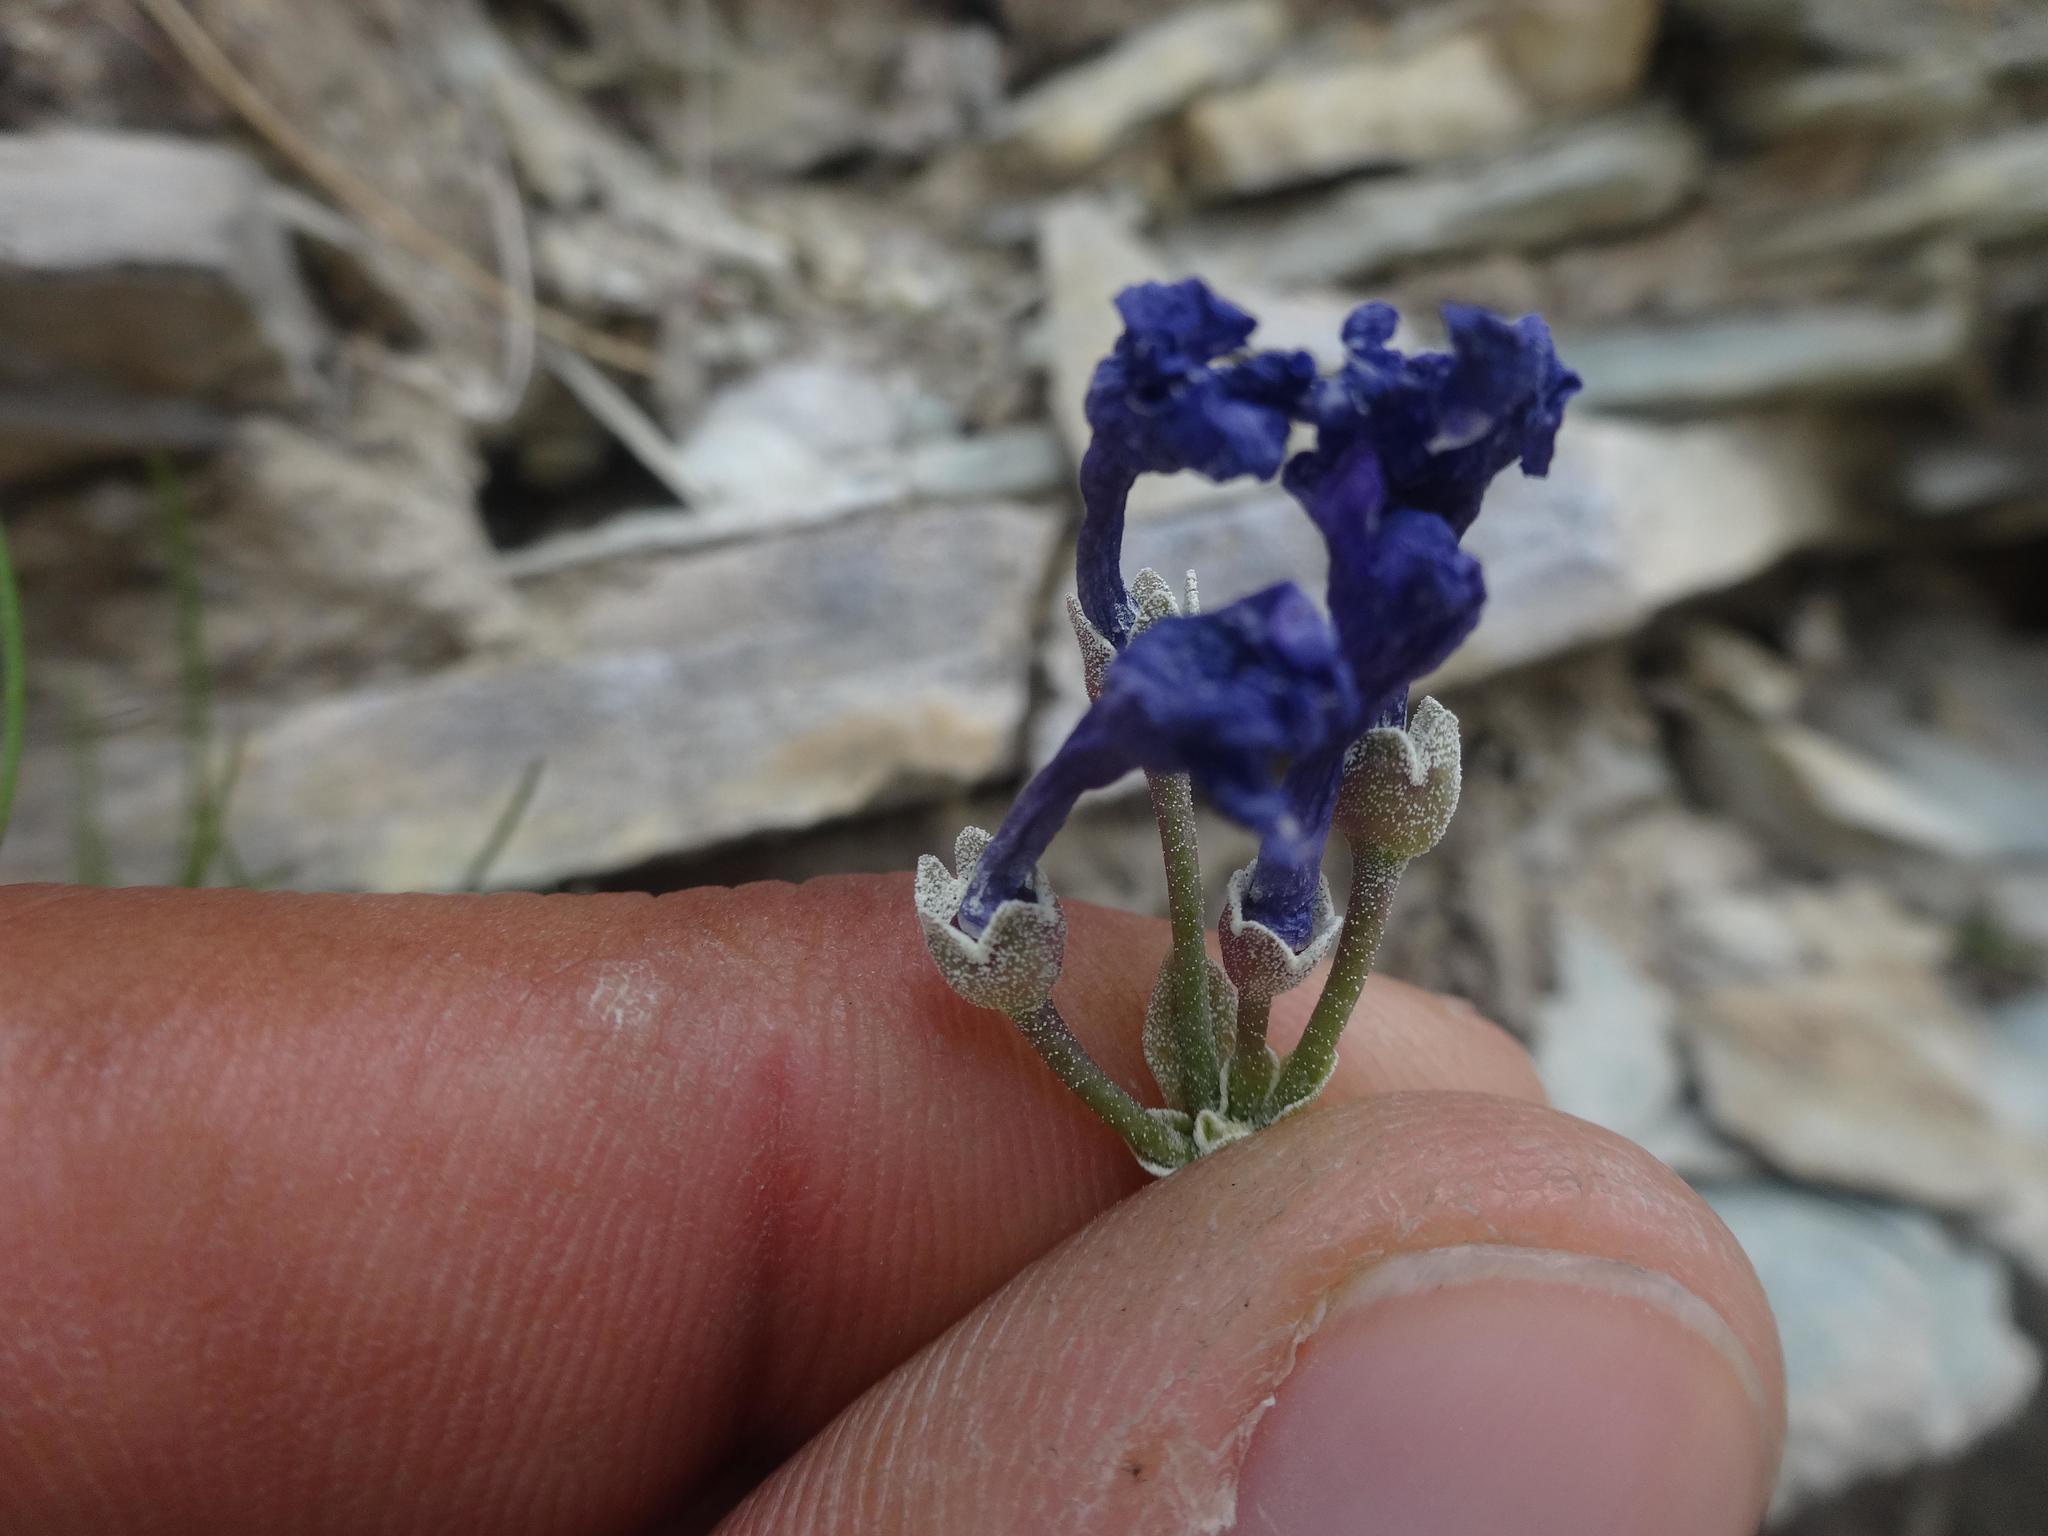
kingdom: Plantae
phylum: Tracheophyta
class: Magnoliopsida
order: Ericales
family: Primulaceae
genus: Primula
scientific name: Primula marginata
